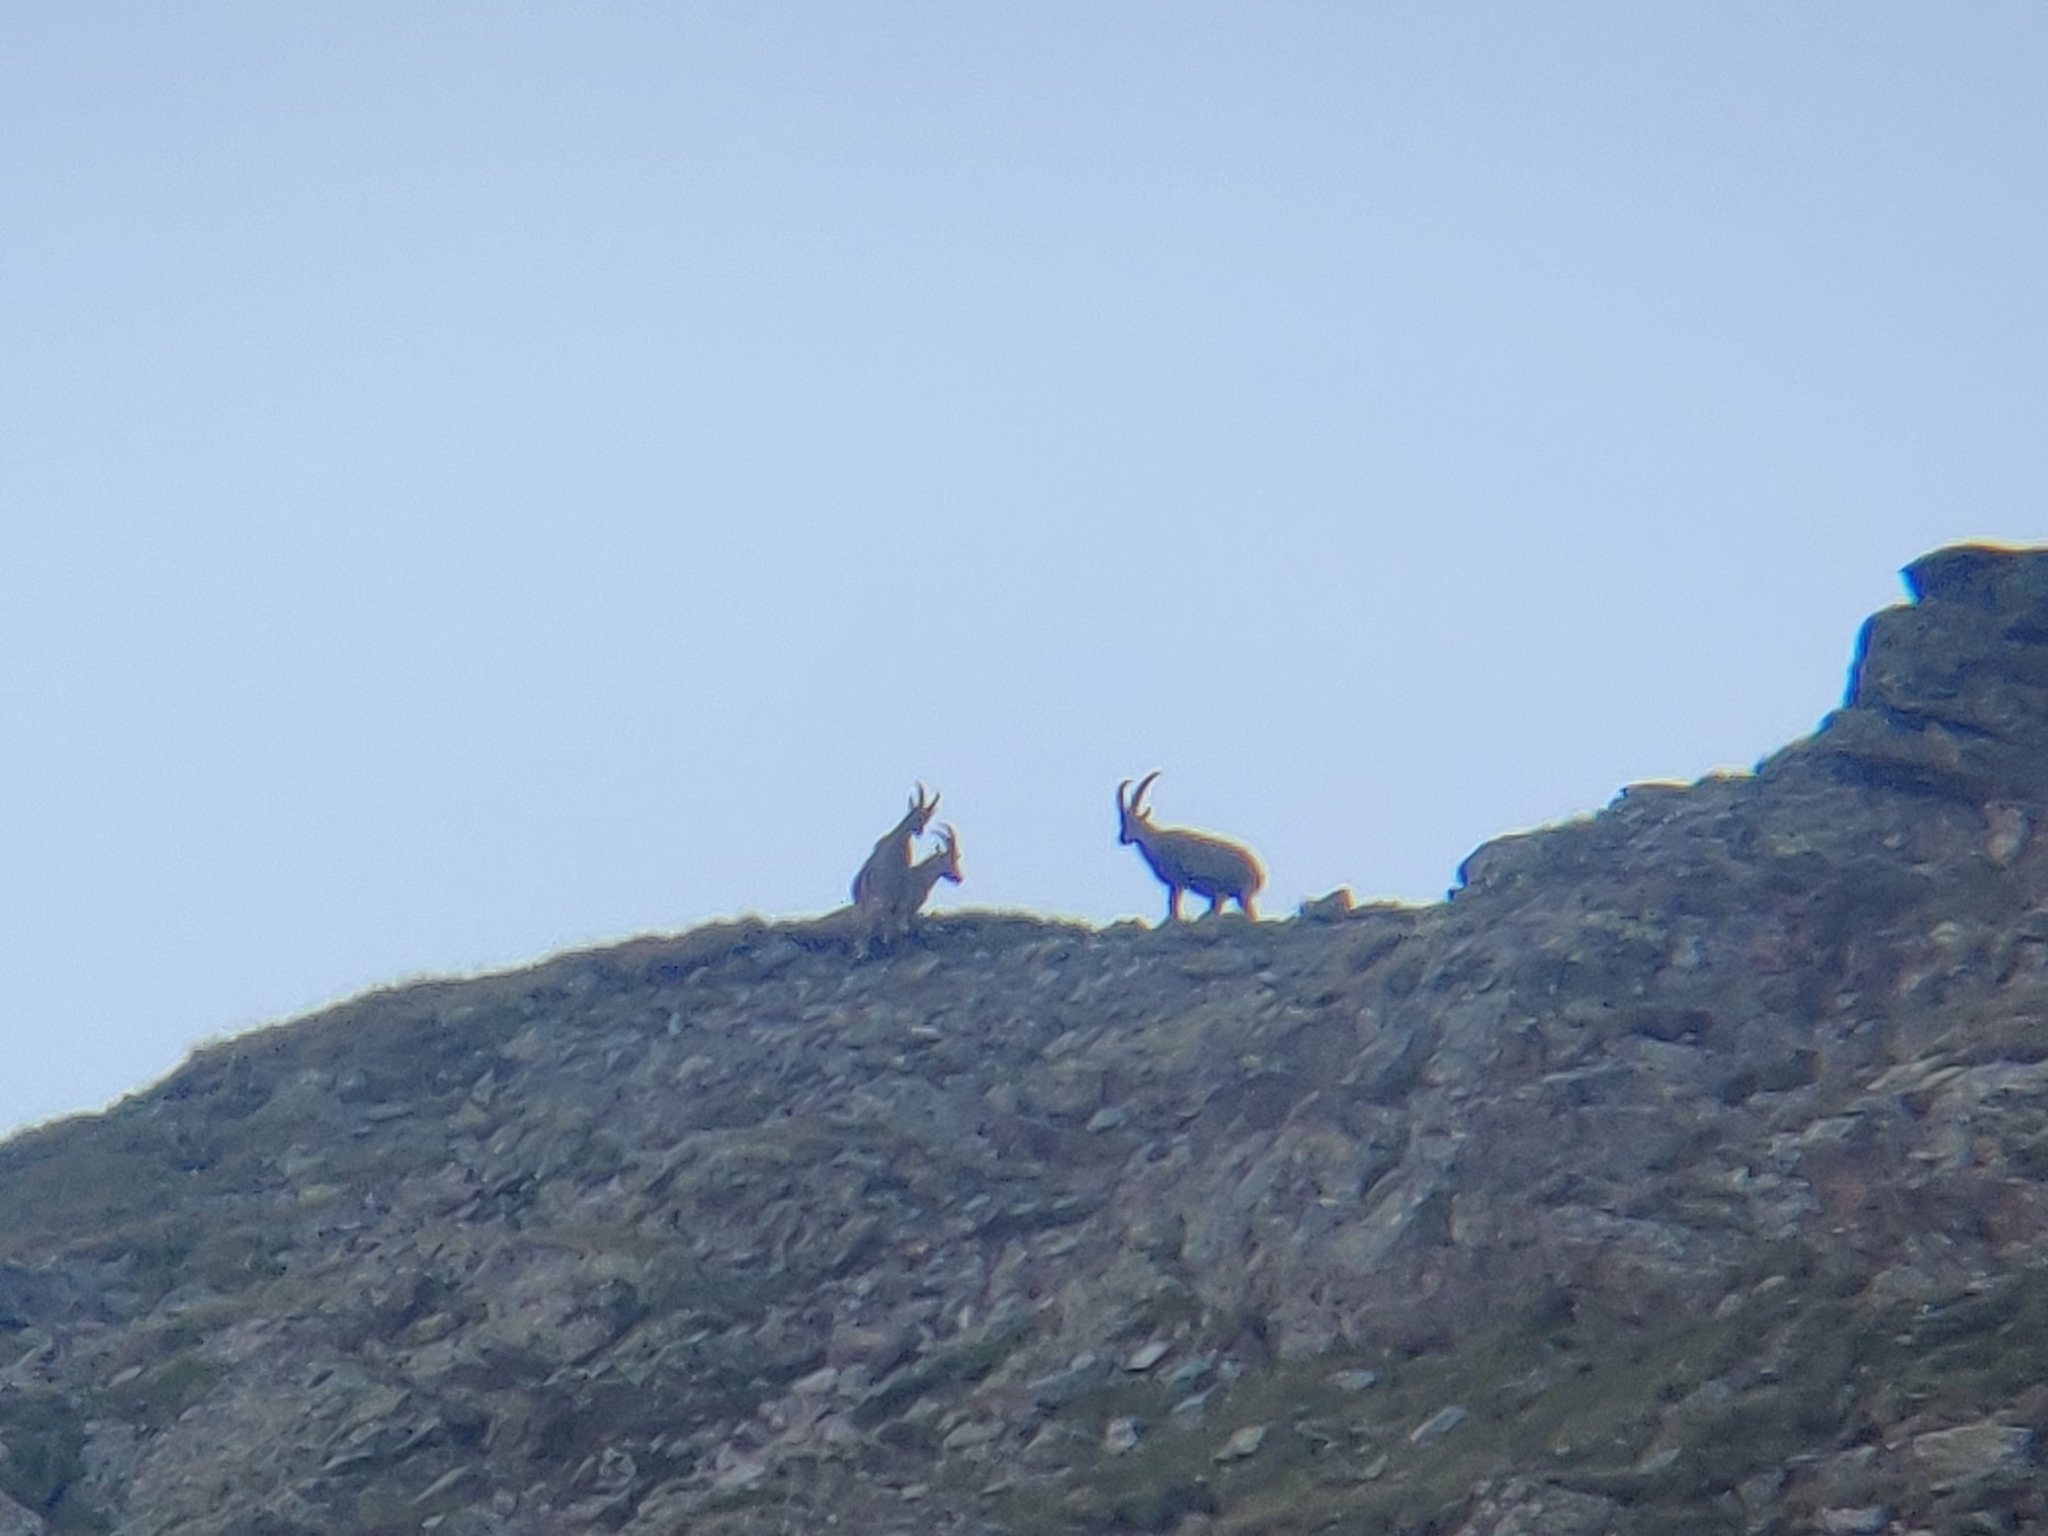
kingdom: Animalia
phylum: Chordata
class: Mammalia
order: Artiodactyla
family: Bovidae
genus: Capra
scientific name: Capra ibex
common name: Alpine ibex
